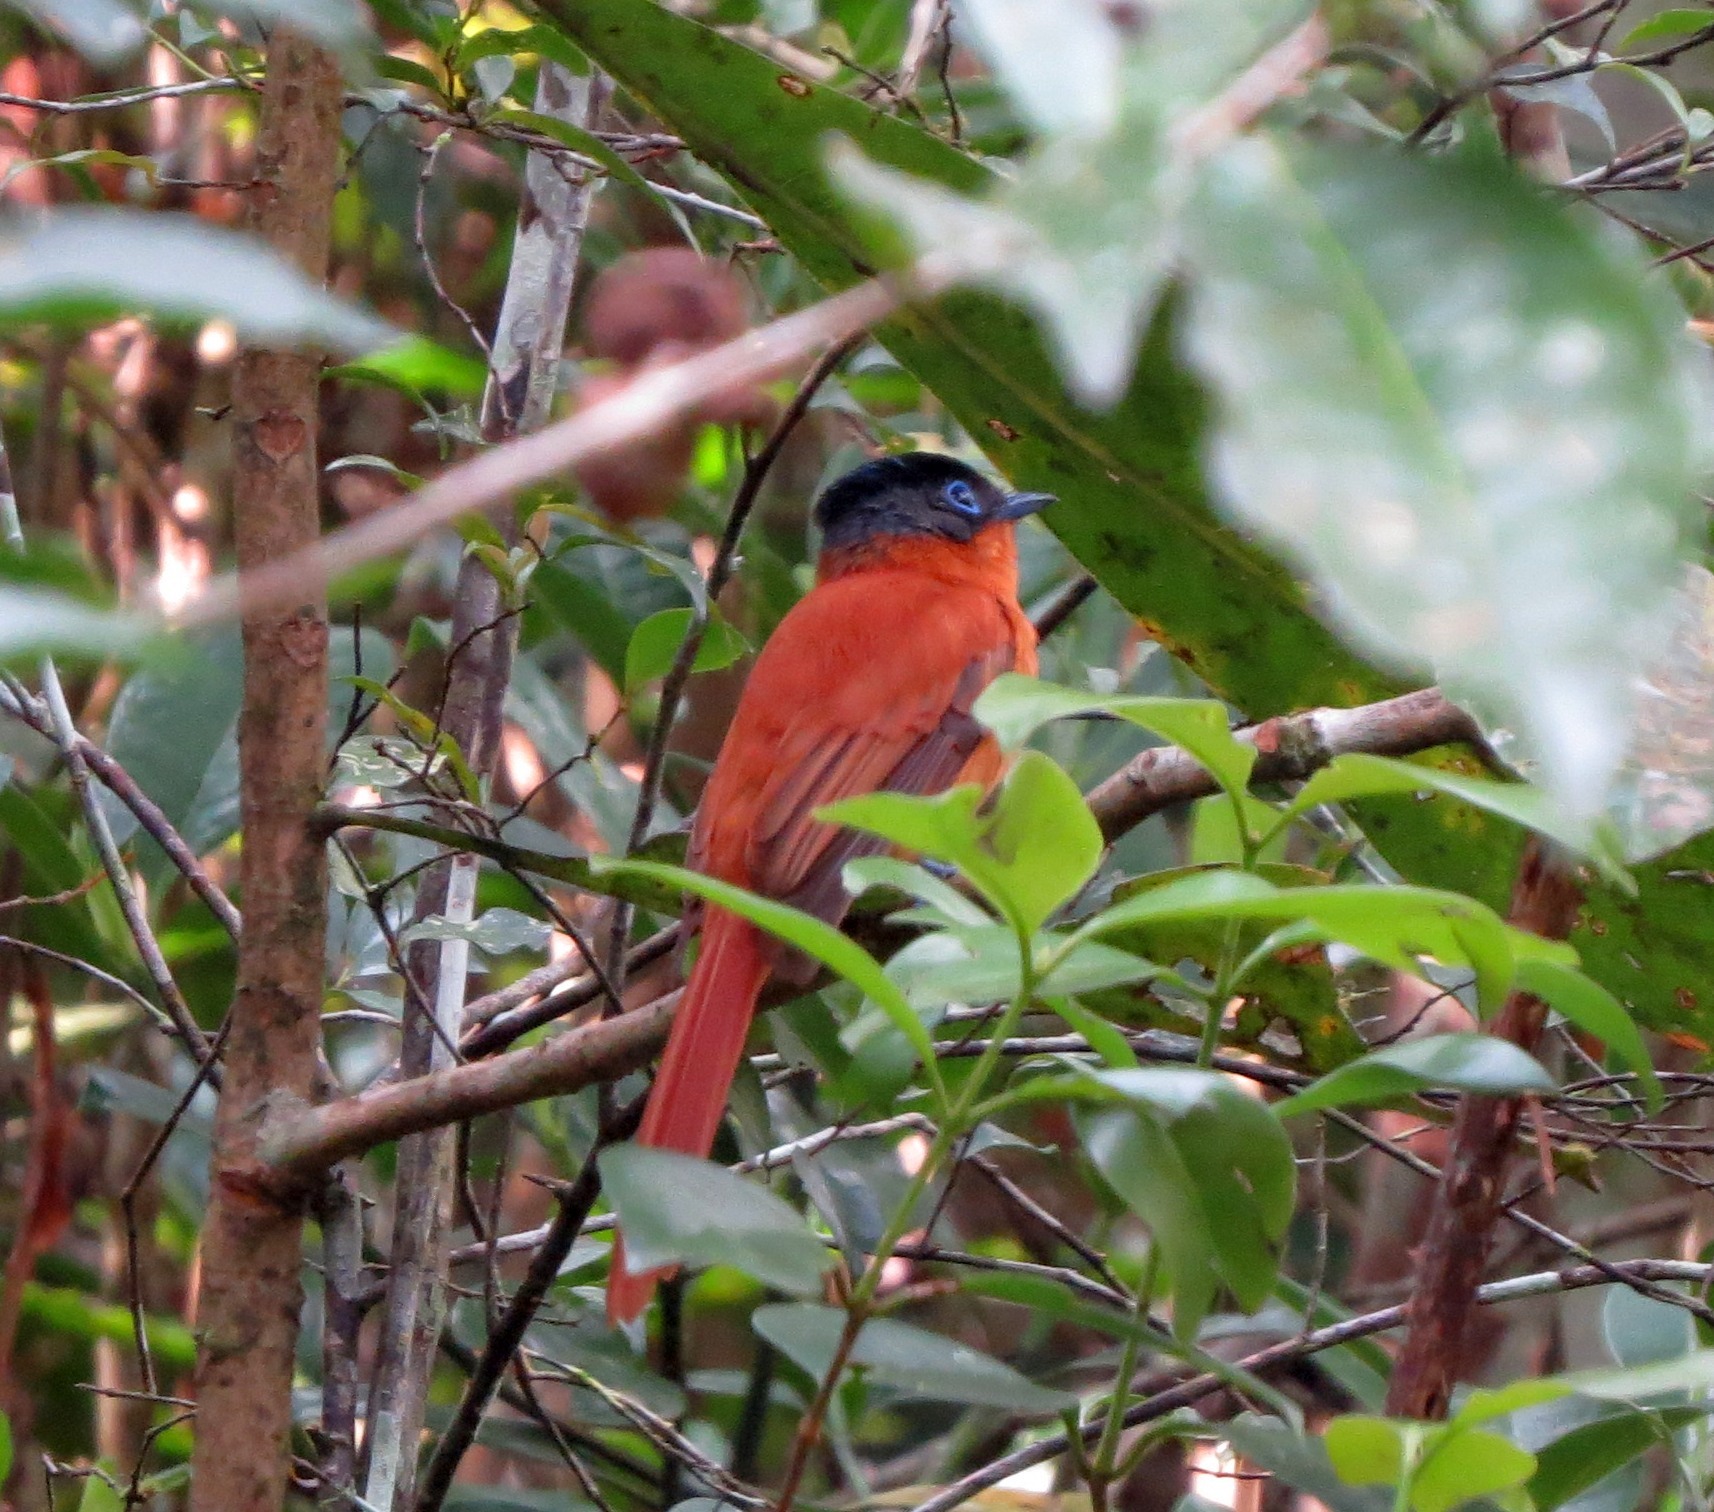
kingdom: Animalia
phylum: Chordata
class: Aves
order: Passeriformes
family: Monarchidae
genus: Terpsiphone
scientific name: Terpsiphone mutata
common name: Malagasy paradise flycatcher
